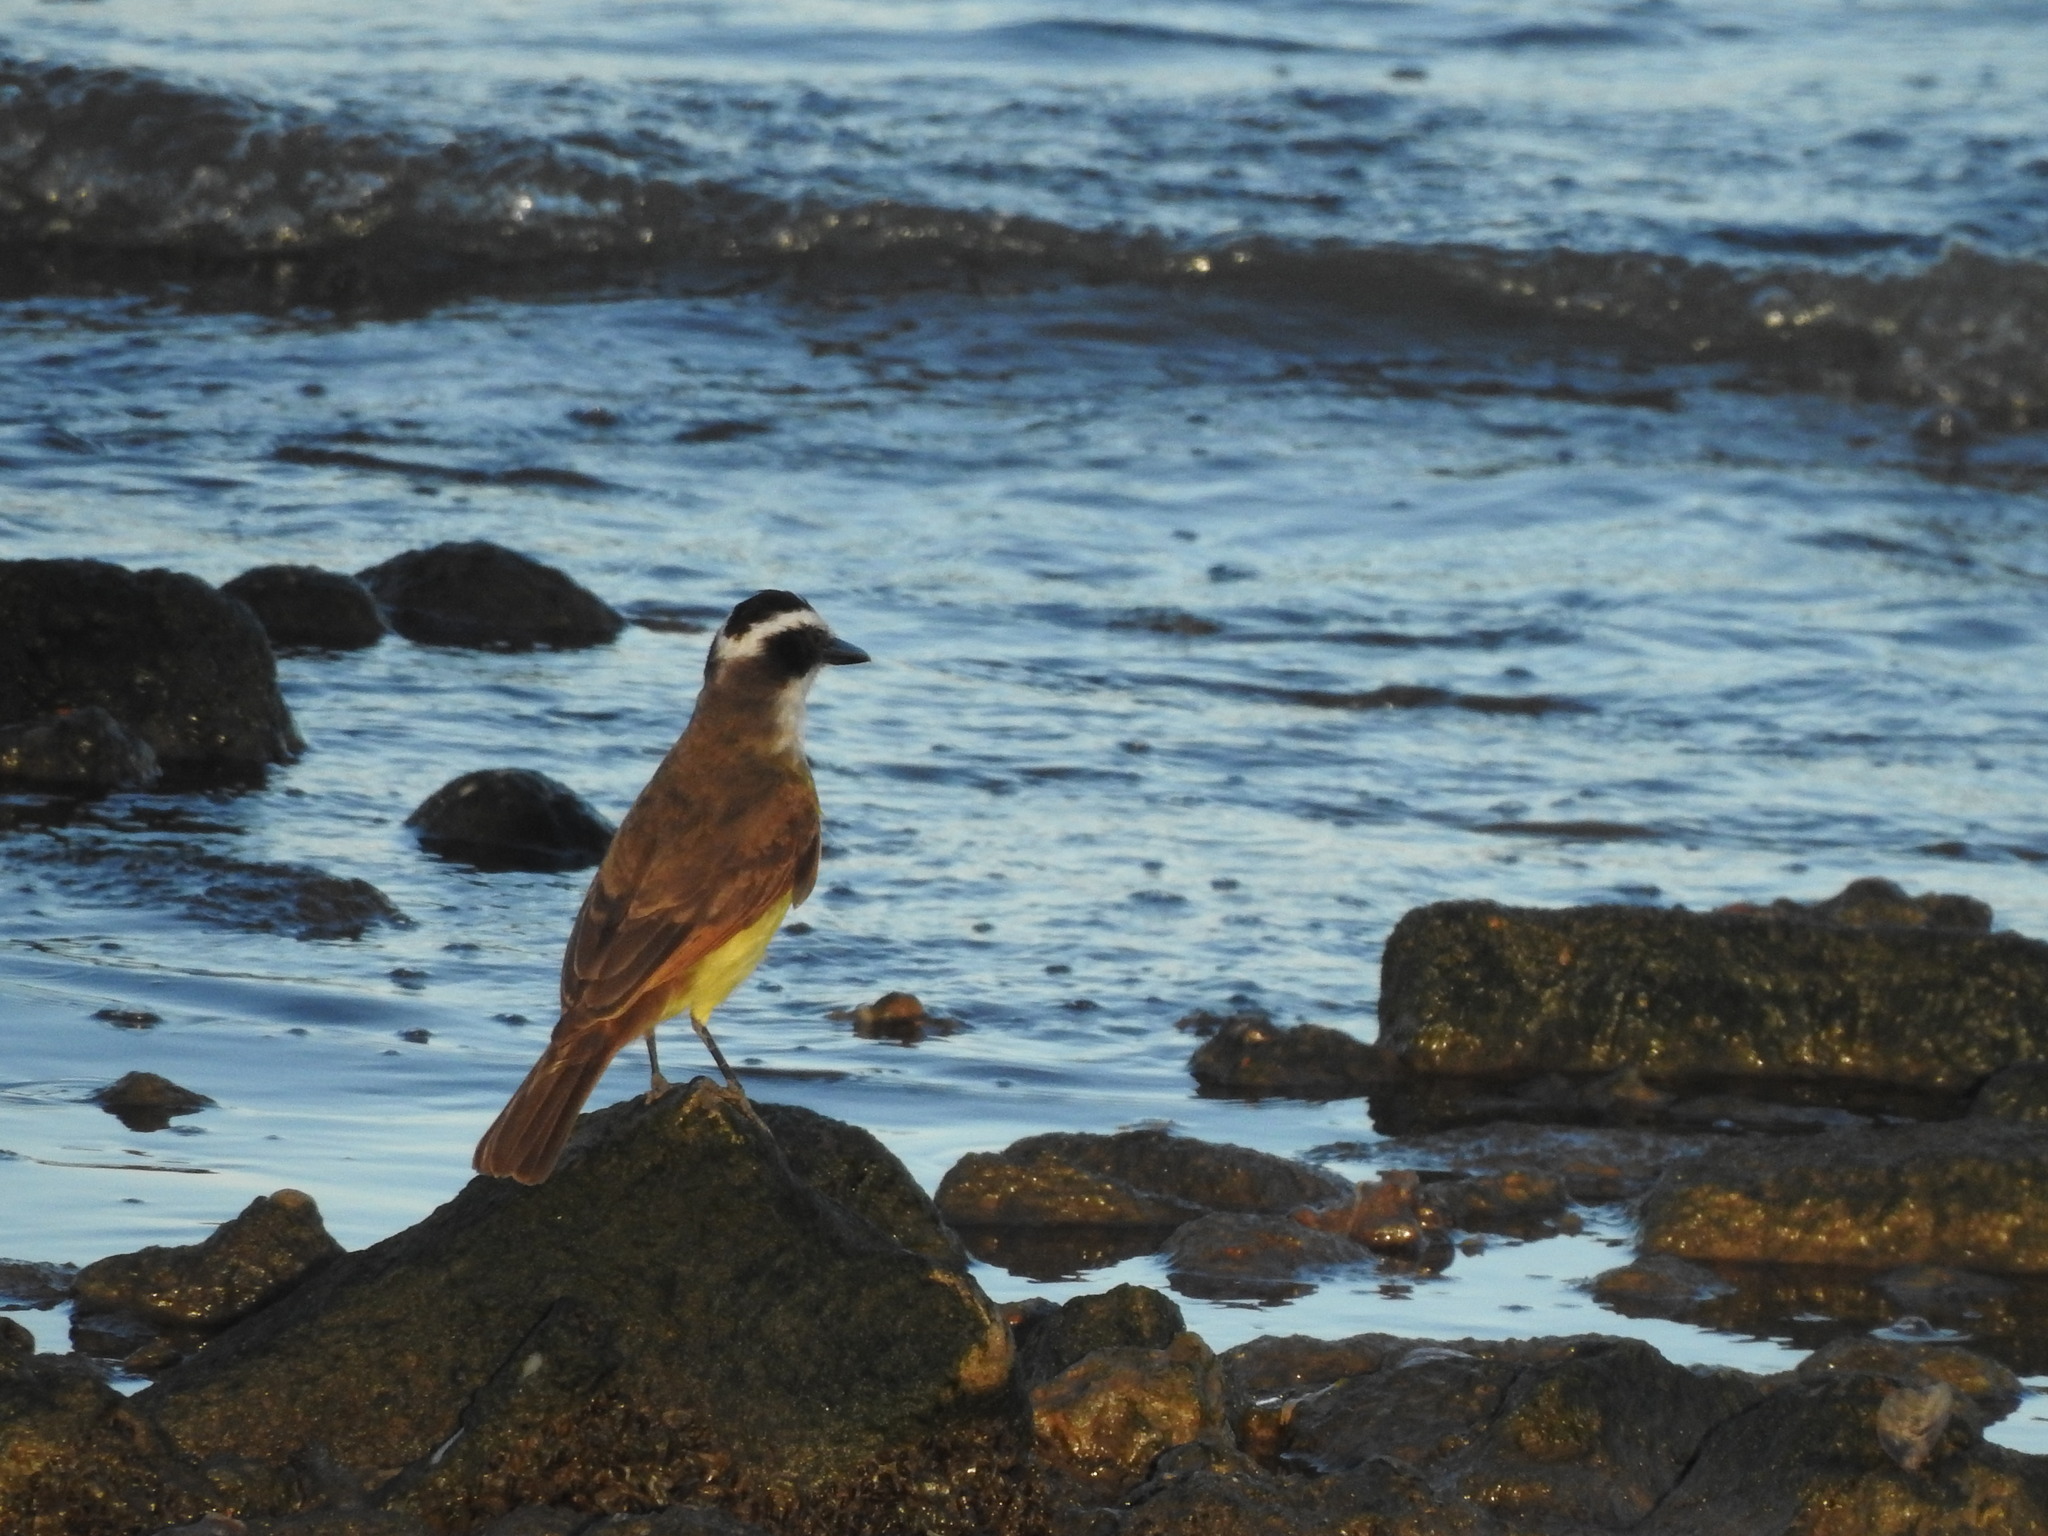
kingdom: Animalia
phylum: Chordata
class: Aves
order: Passeriformes
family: Tyrannidae
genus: Pitangus
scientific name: Pitangus sulphuratus
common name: Great kiskadee
